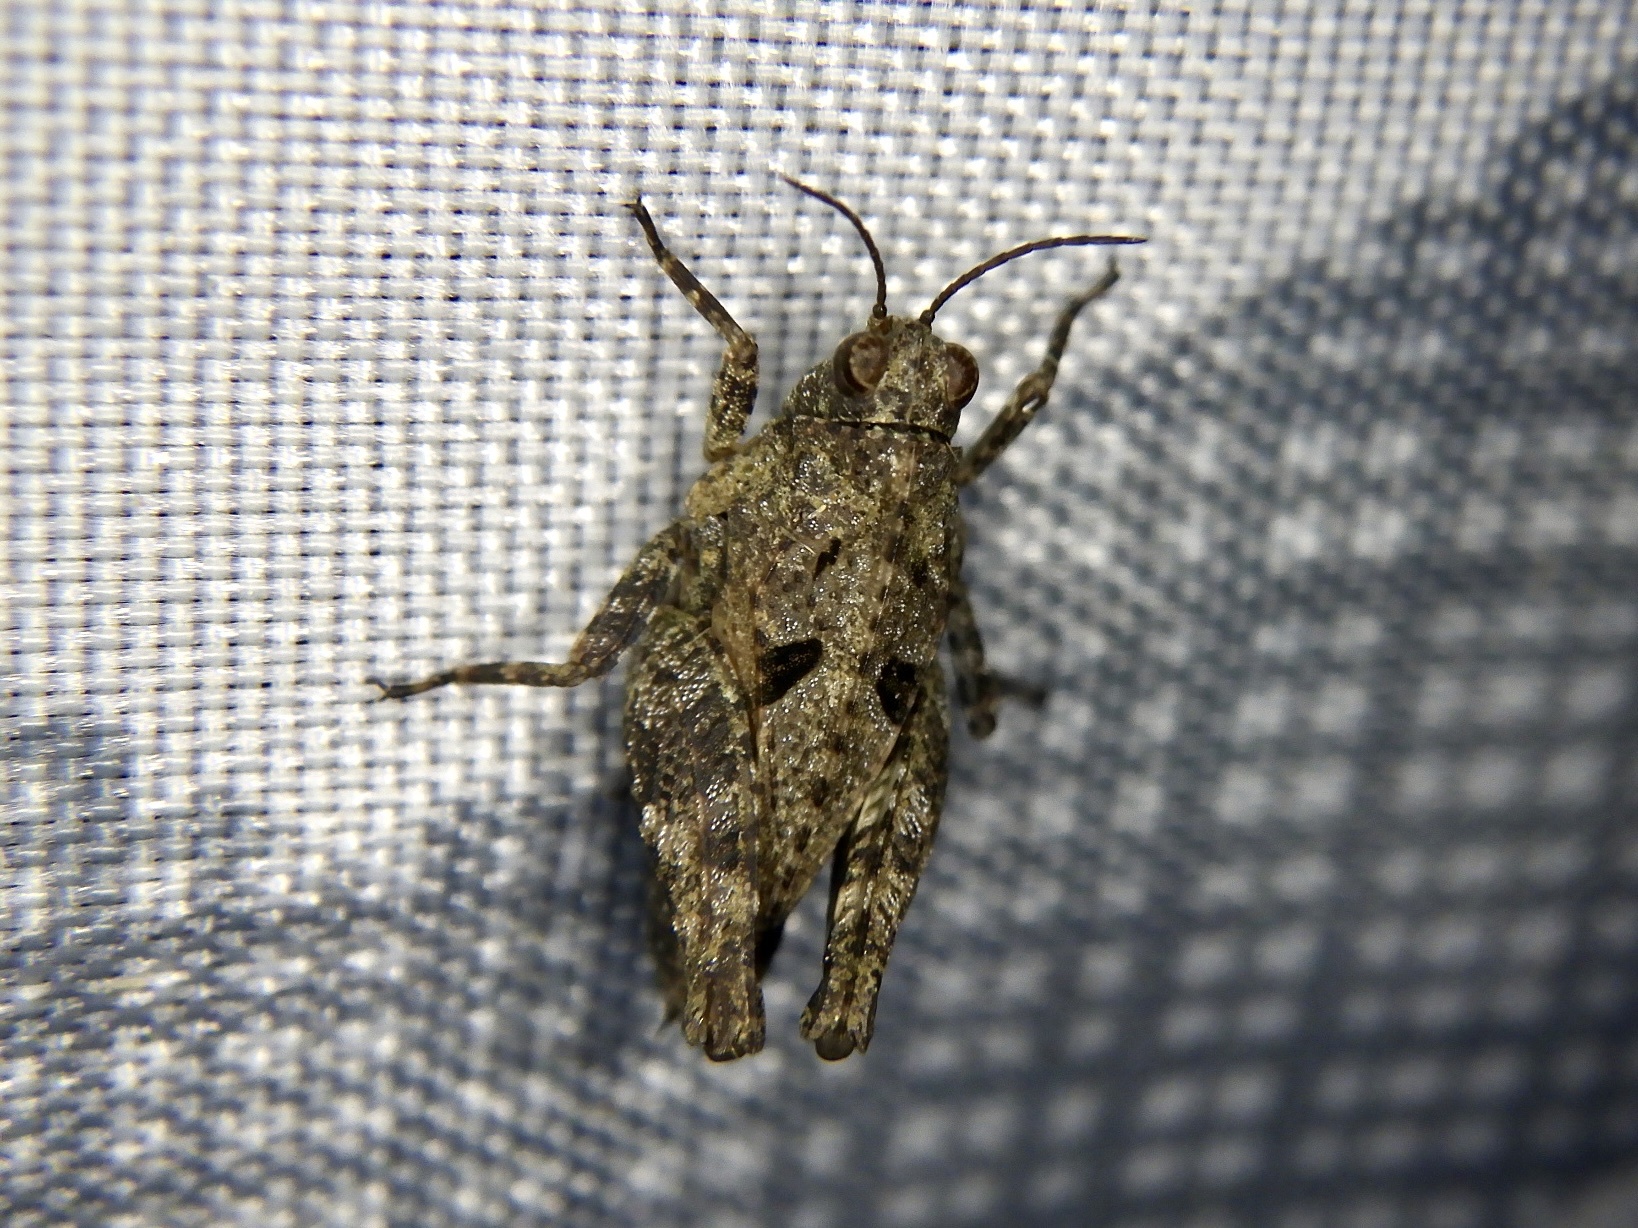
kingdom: Animalia
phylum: Arthropoda
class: Insecta
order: Orthoptera
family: Tetrigidae
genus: Tetrix
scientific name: Tetrix japonica
